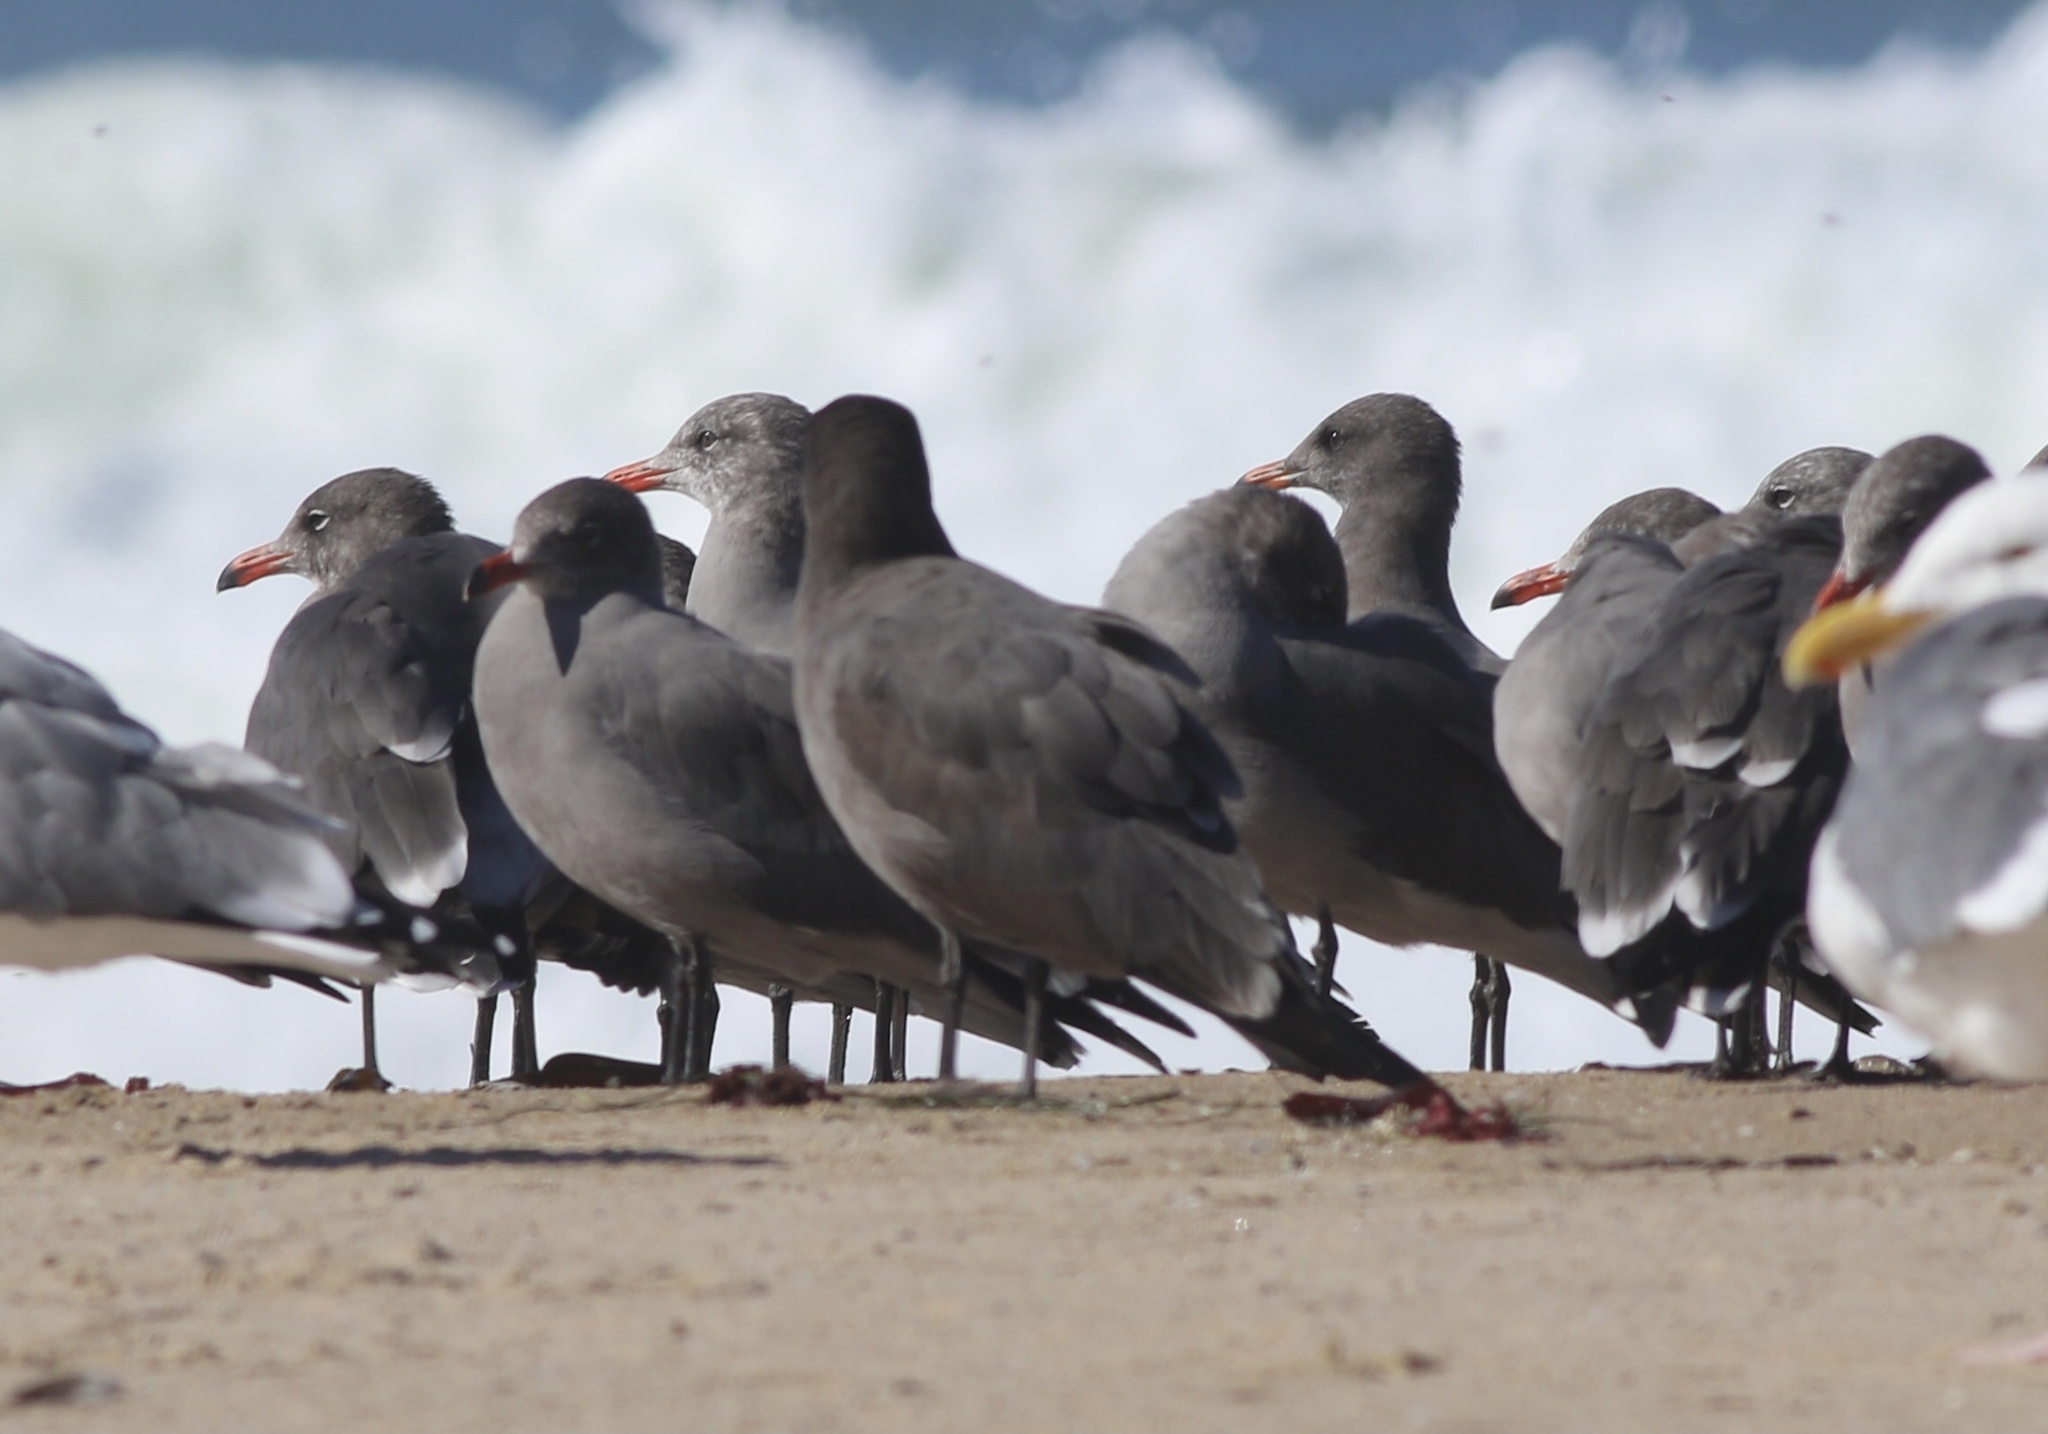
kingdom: Animalia
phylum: Chordata
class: Aves
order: Charadriiformes
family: Laridae
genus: Larus
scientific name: Larus heermanni
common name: Heermann's gull
